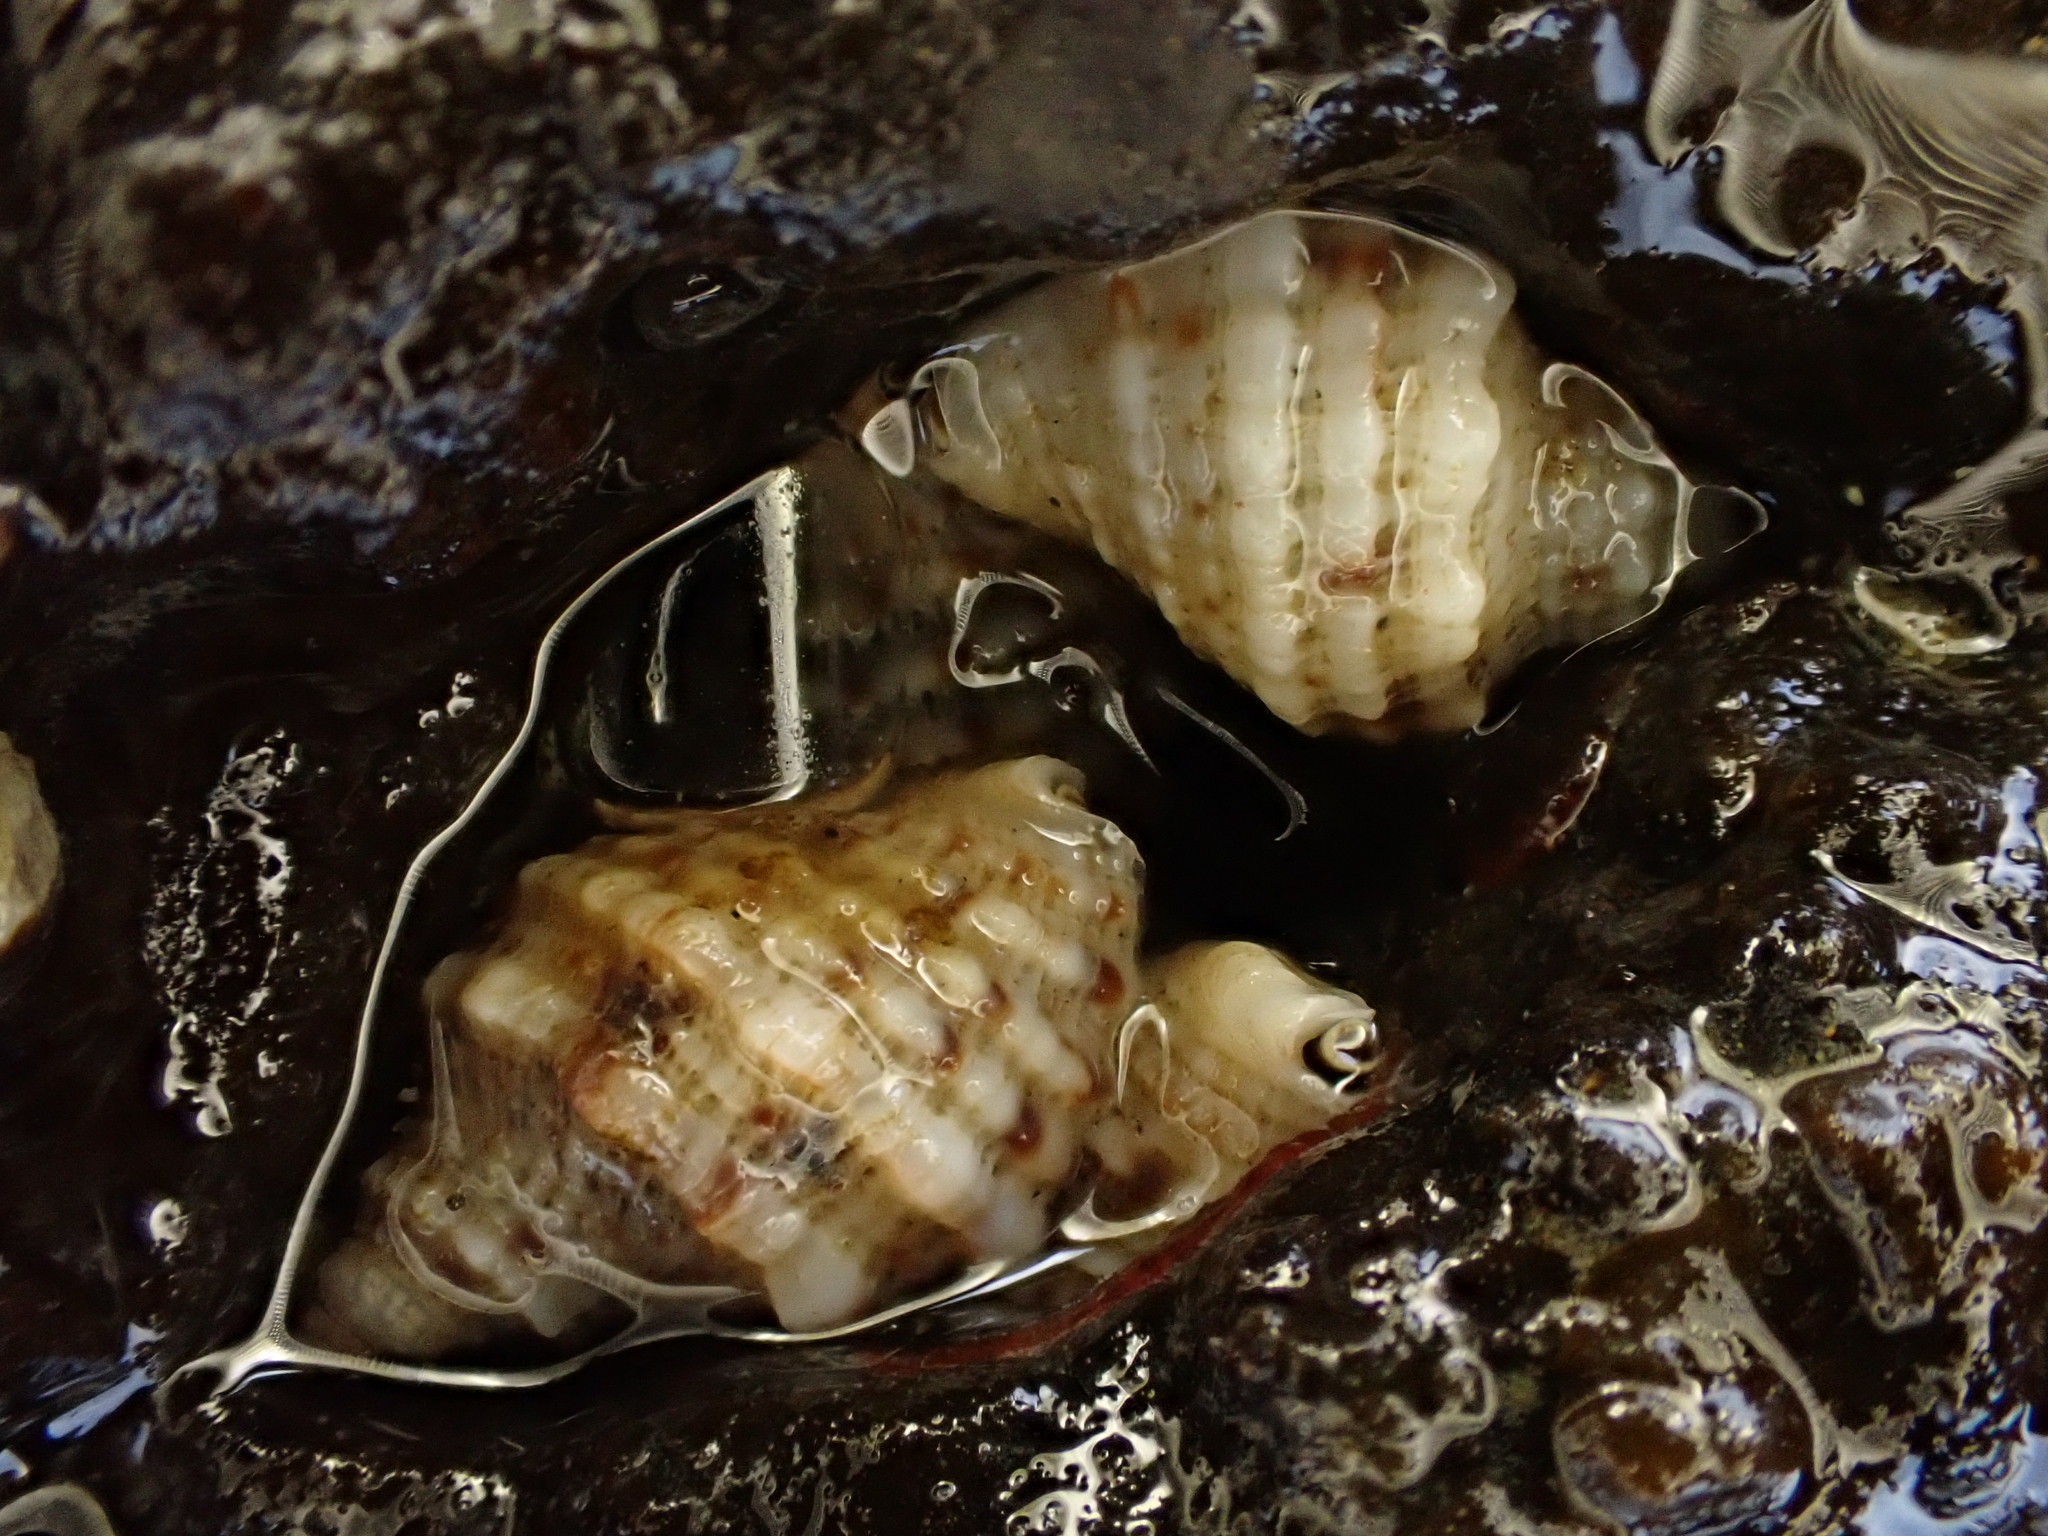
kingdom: Animalia
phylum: Mollusca
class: Gastropoda
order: Neogastropoda
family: Muricidae
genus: Dicathais
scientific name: Dicathais orbita
